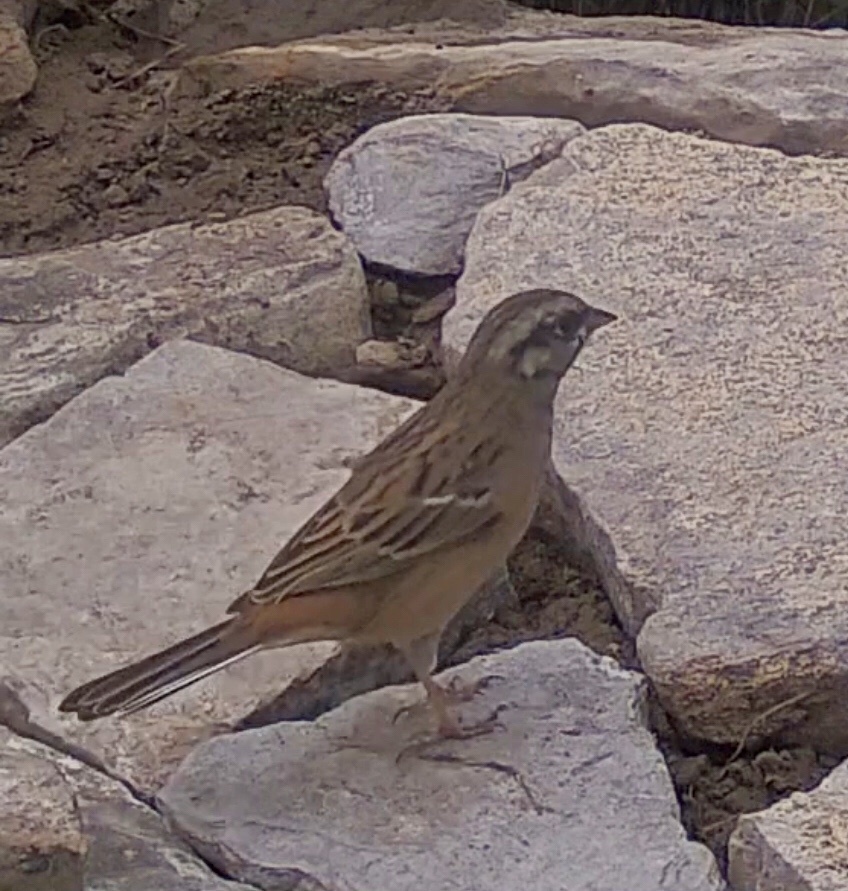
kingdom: Animalia
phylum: Chordata
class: Aves
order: Passeriformes
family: Emberizidae
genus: Emberiza
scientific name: Emberiza cia
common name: Rock bunting
